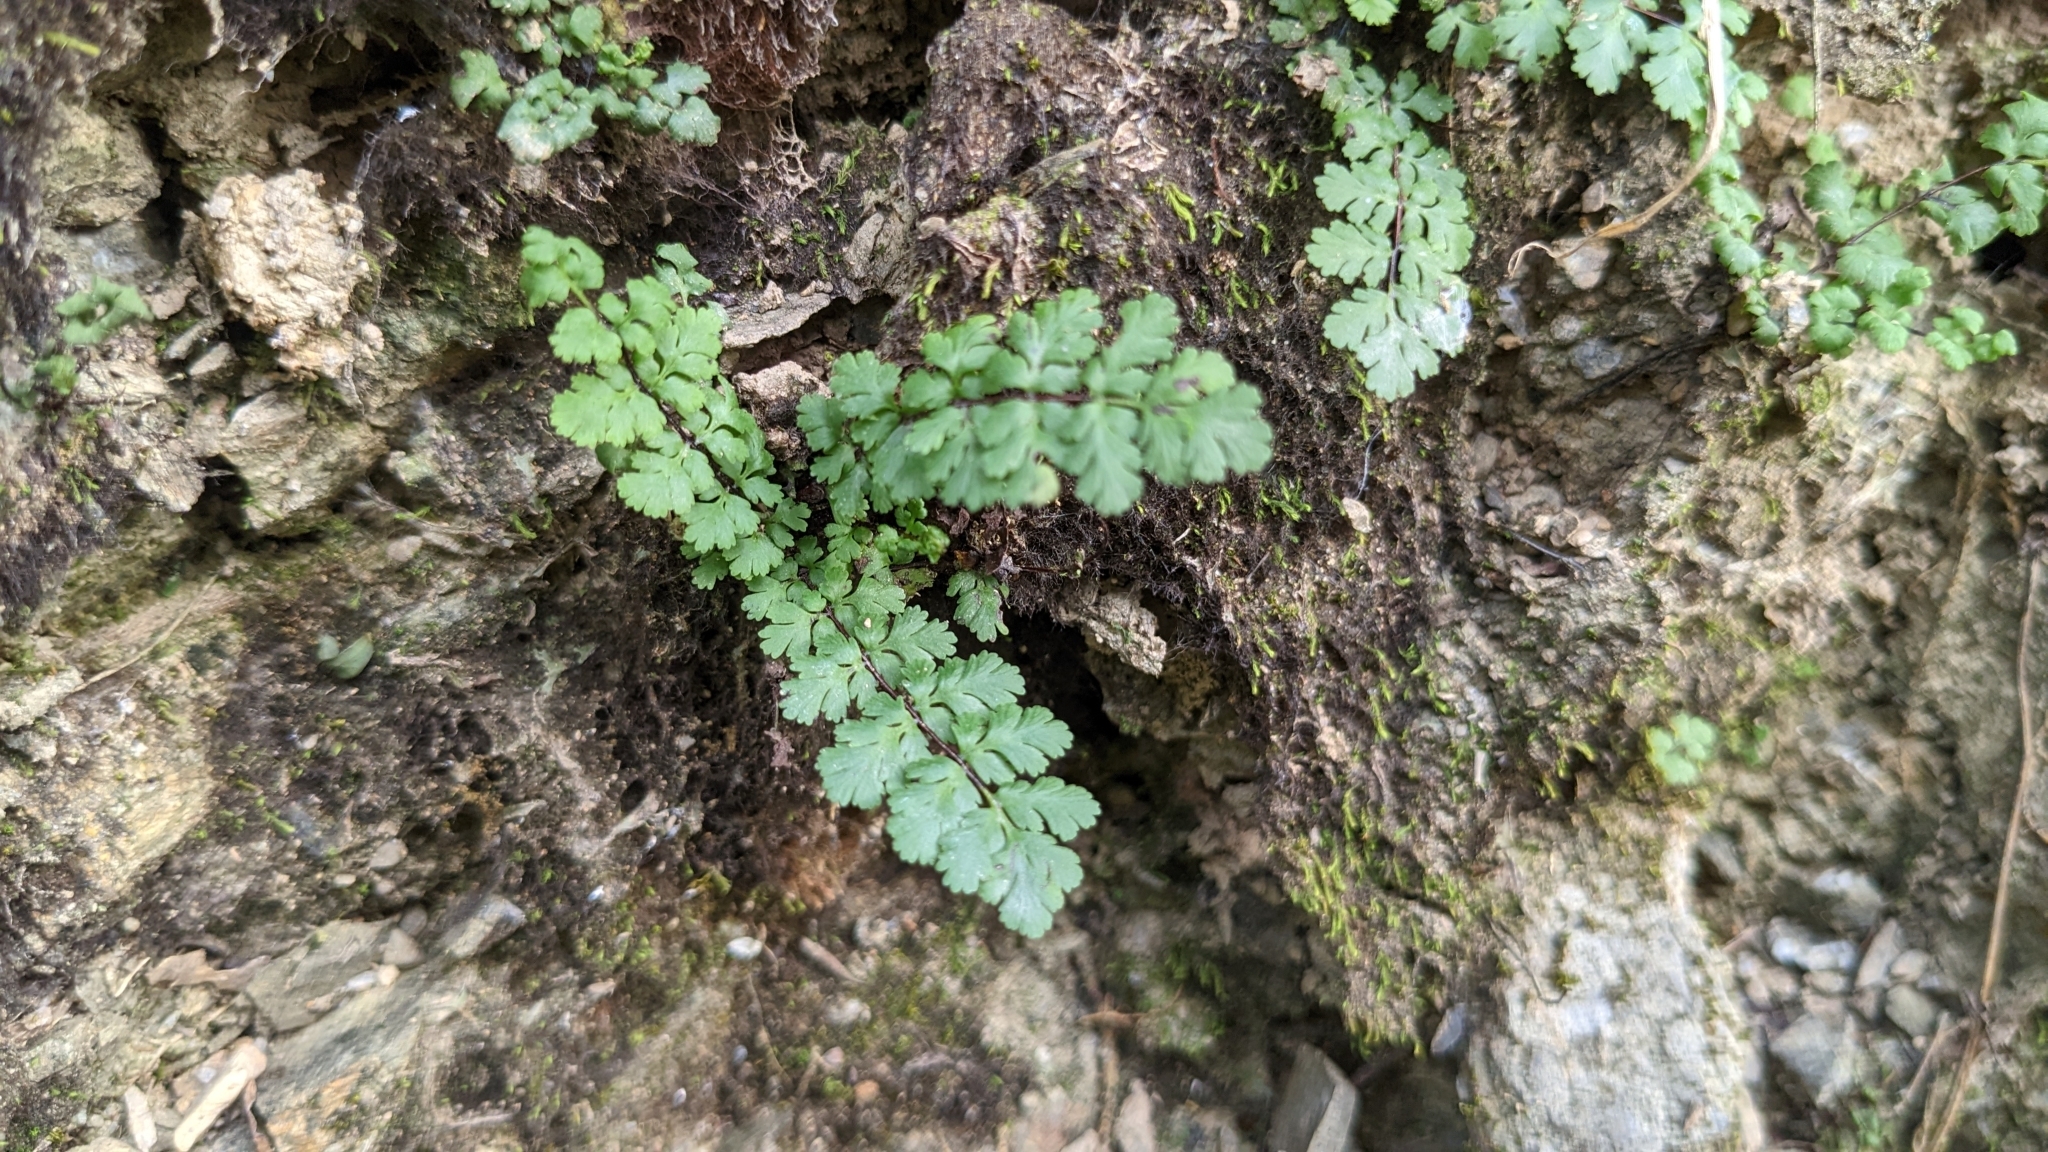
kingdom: Plantae
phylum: Tracheophyta
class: Polypodiopsida
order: Polypodiales
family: Pteridaceae
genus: Oeosporangium
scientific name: Oeosporangium chusanum
